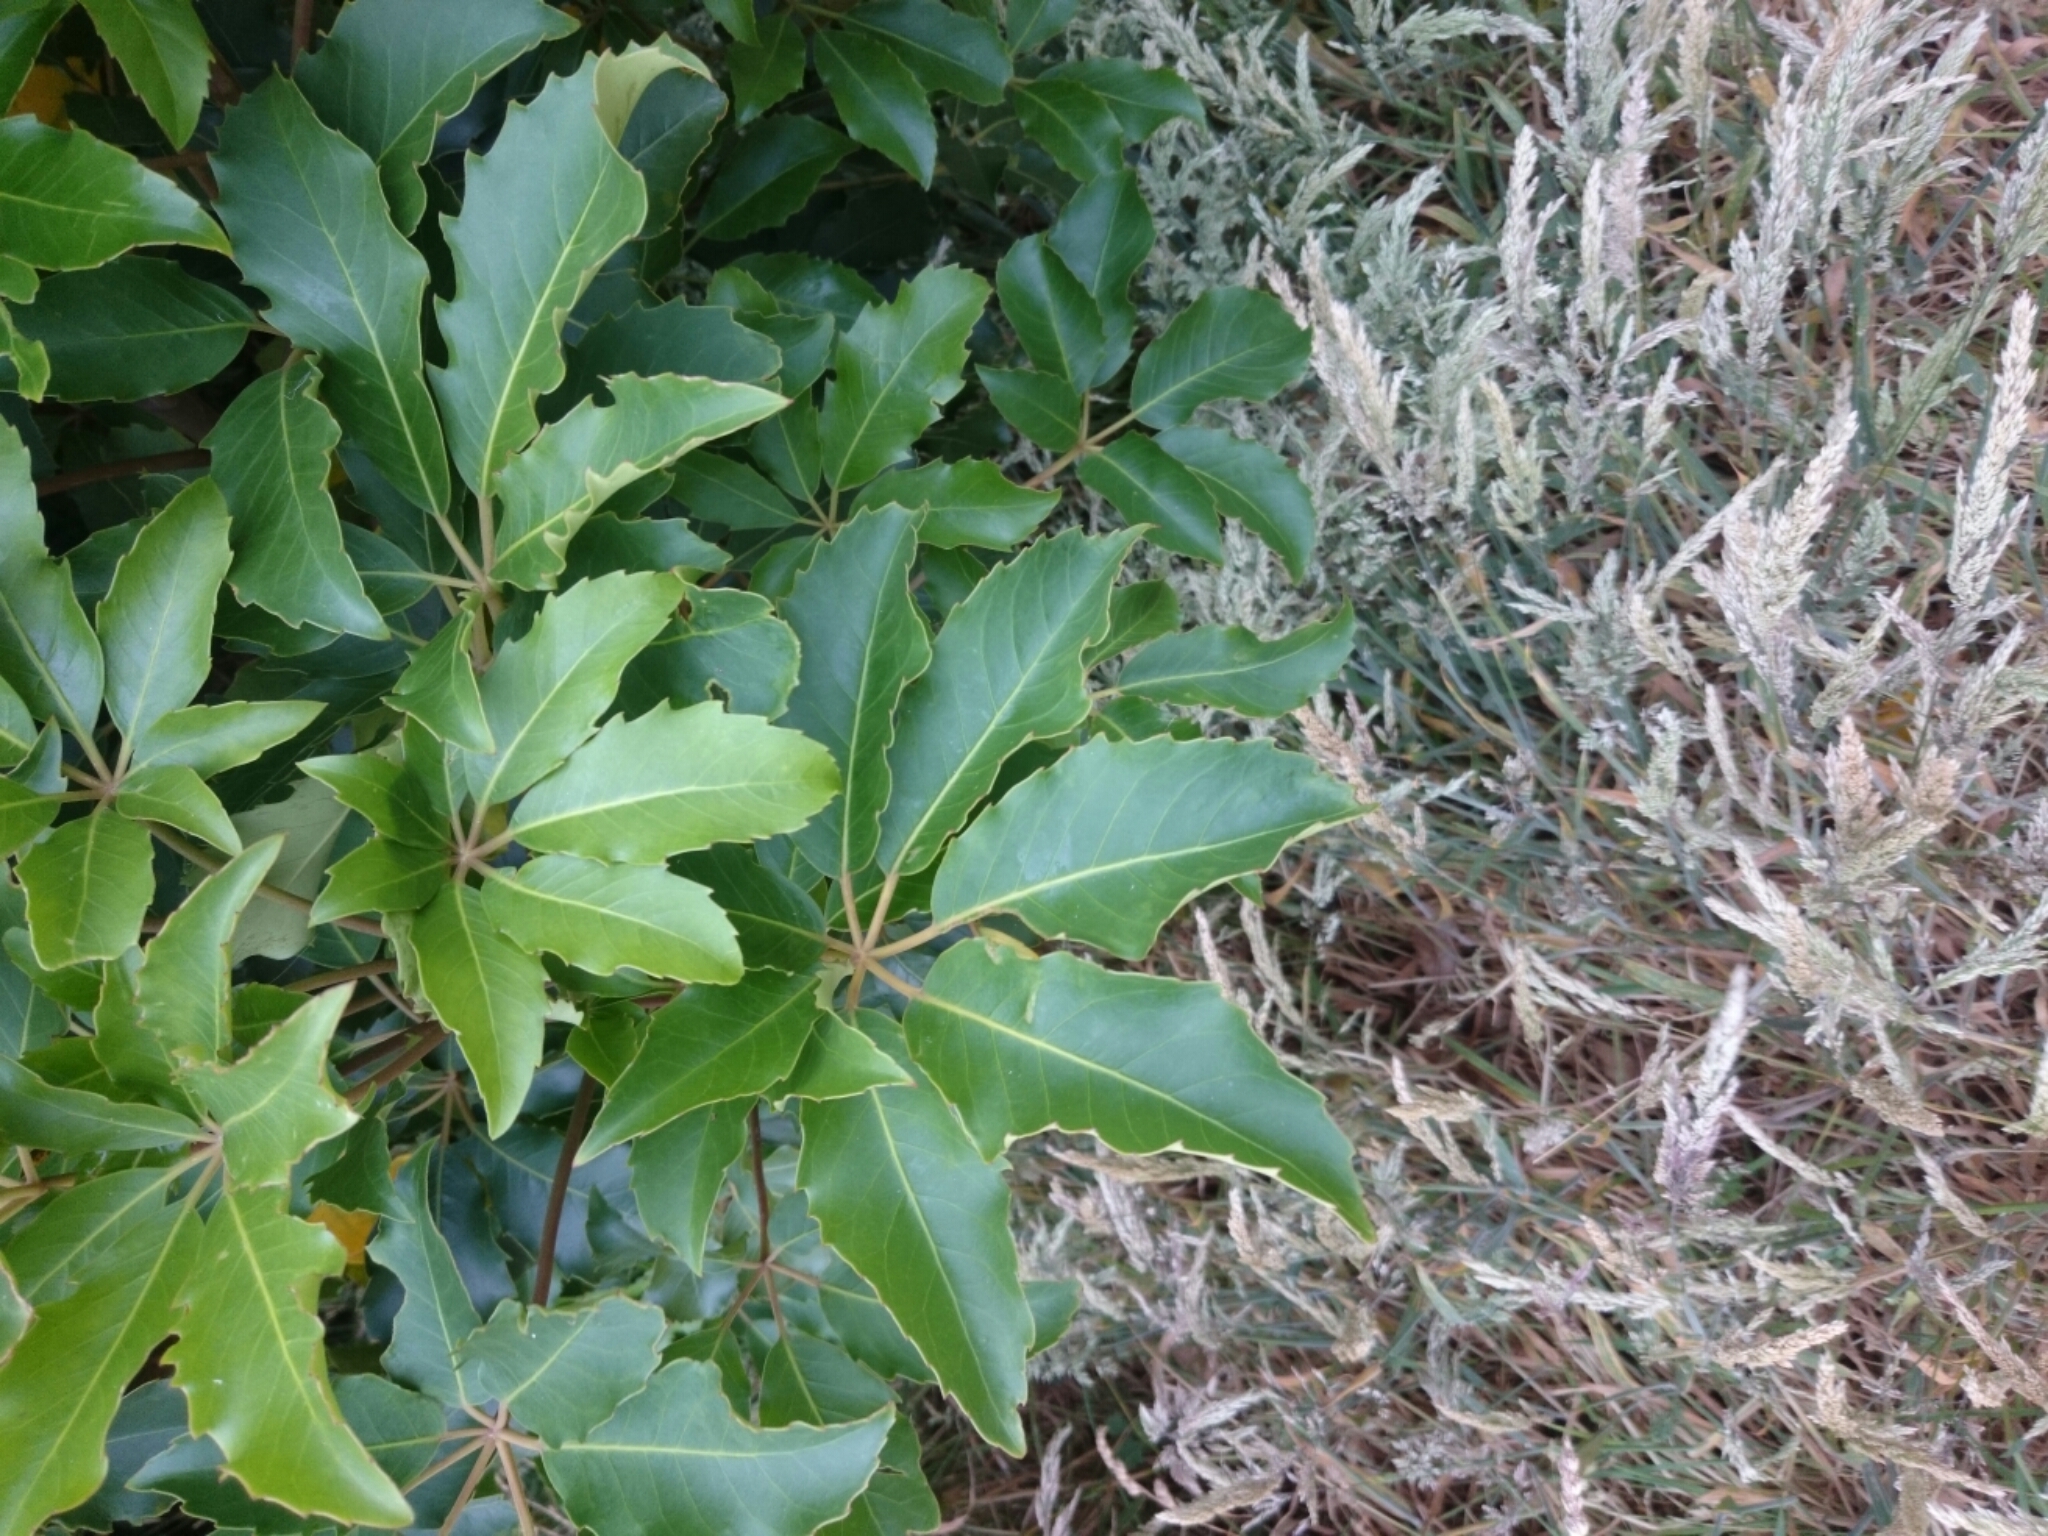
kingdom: Plantae
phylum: Tracheophyta
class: Magnoliopsida
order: Apiales
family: Araliaceae
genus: Neopanax
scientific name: Neopanax arboreus
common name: Five-fingers
